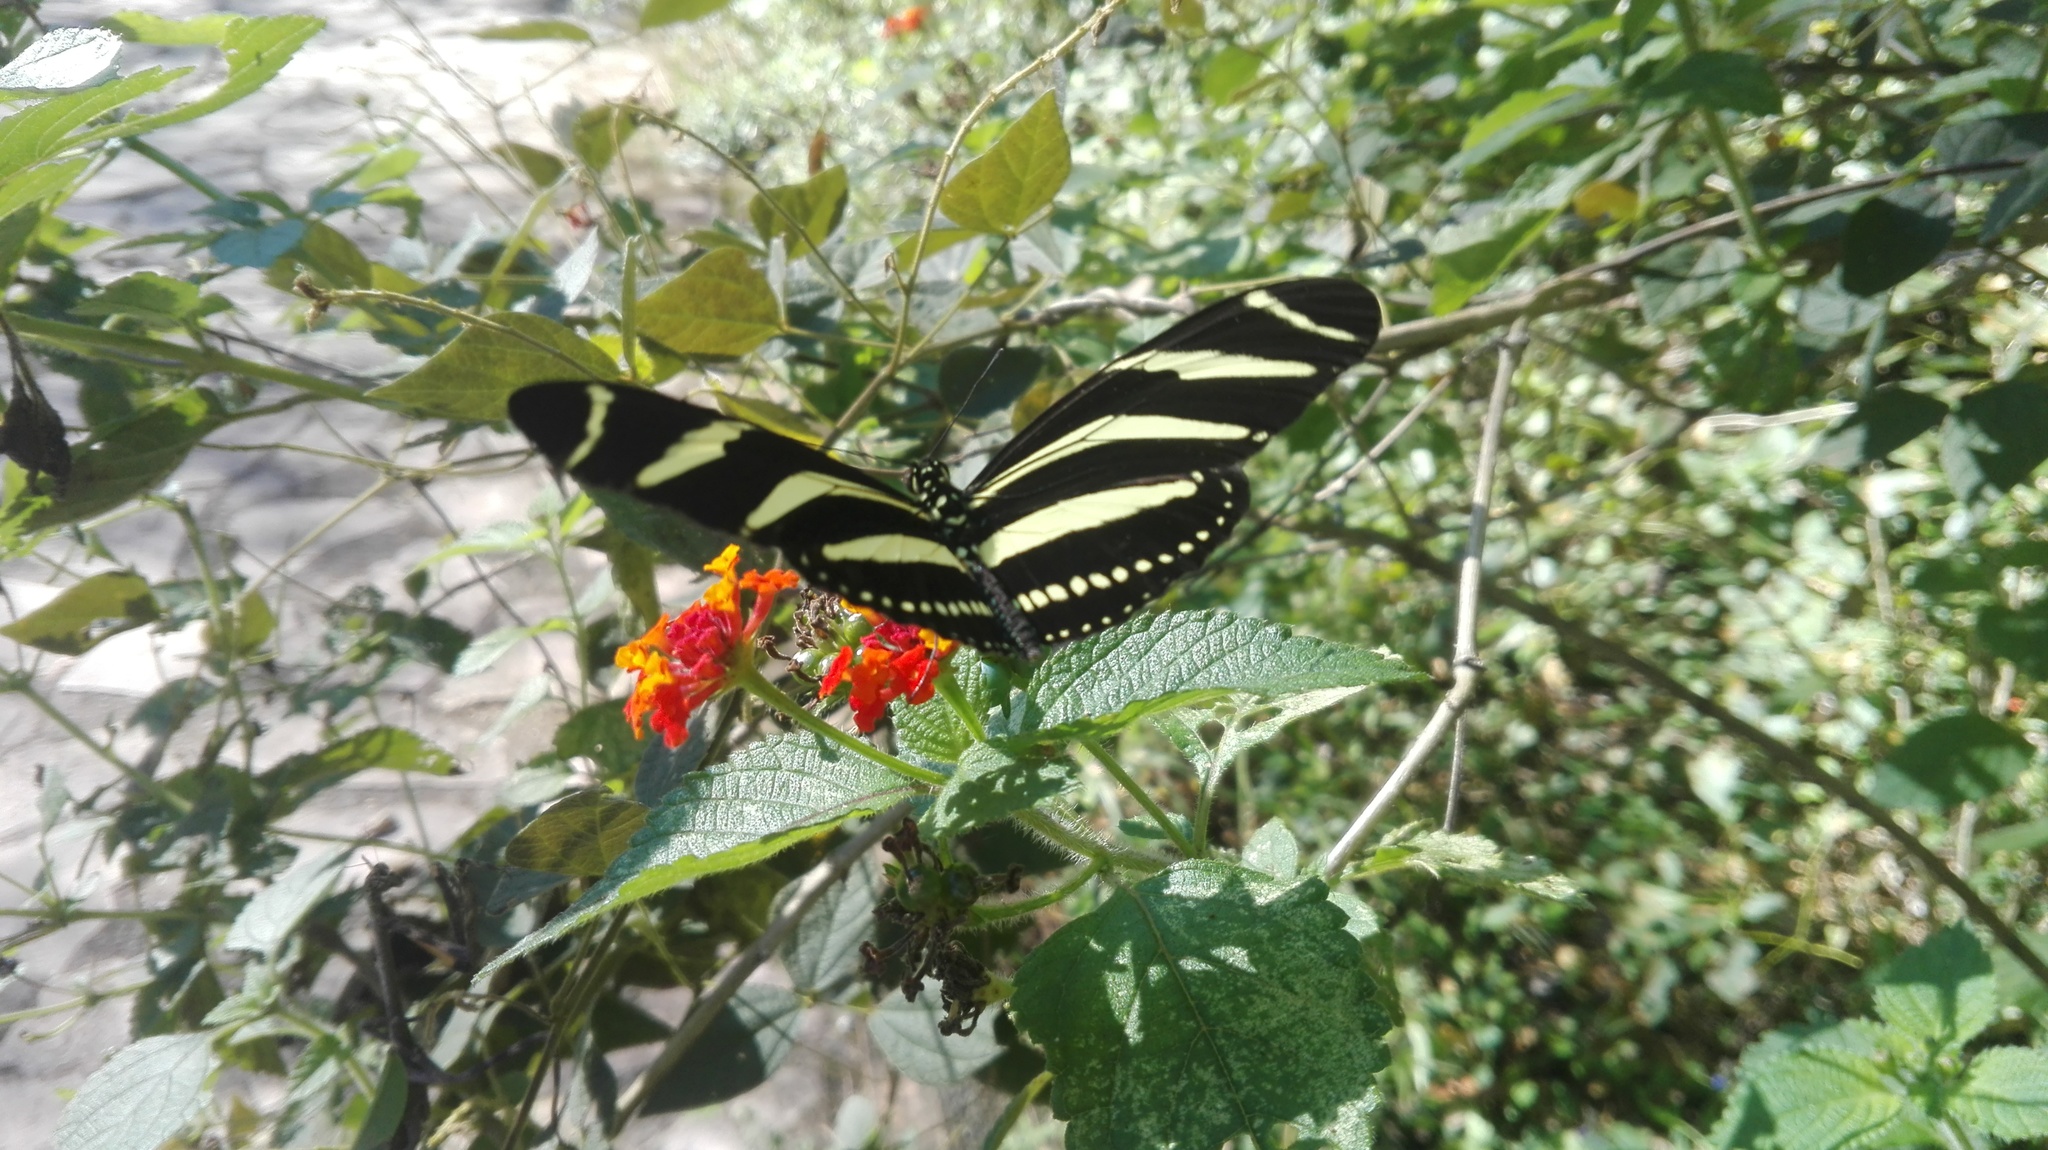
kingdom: Animalia
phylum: Arthropoda
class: Insecta
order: Lepidoptera
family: Nymphalidae
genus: Heliconius
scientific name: Heliconius charithonia
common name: Zebra long wing
